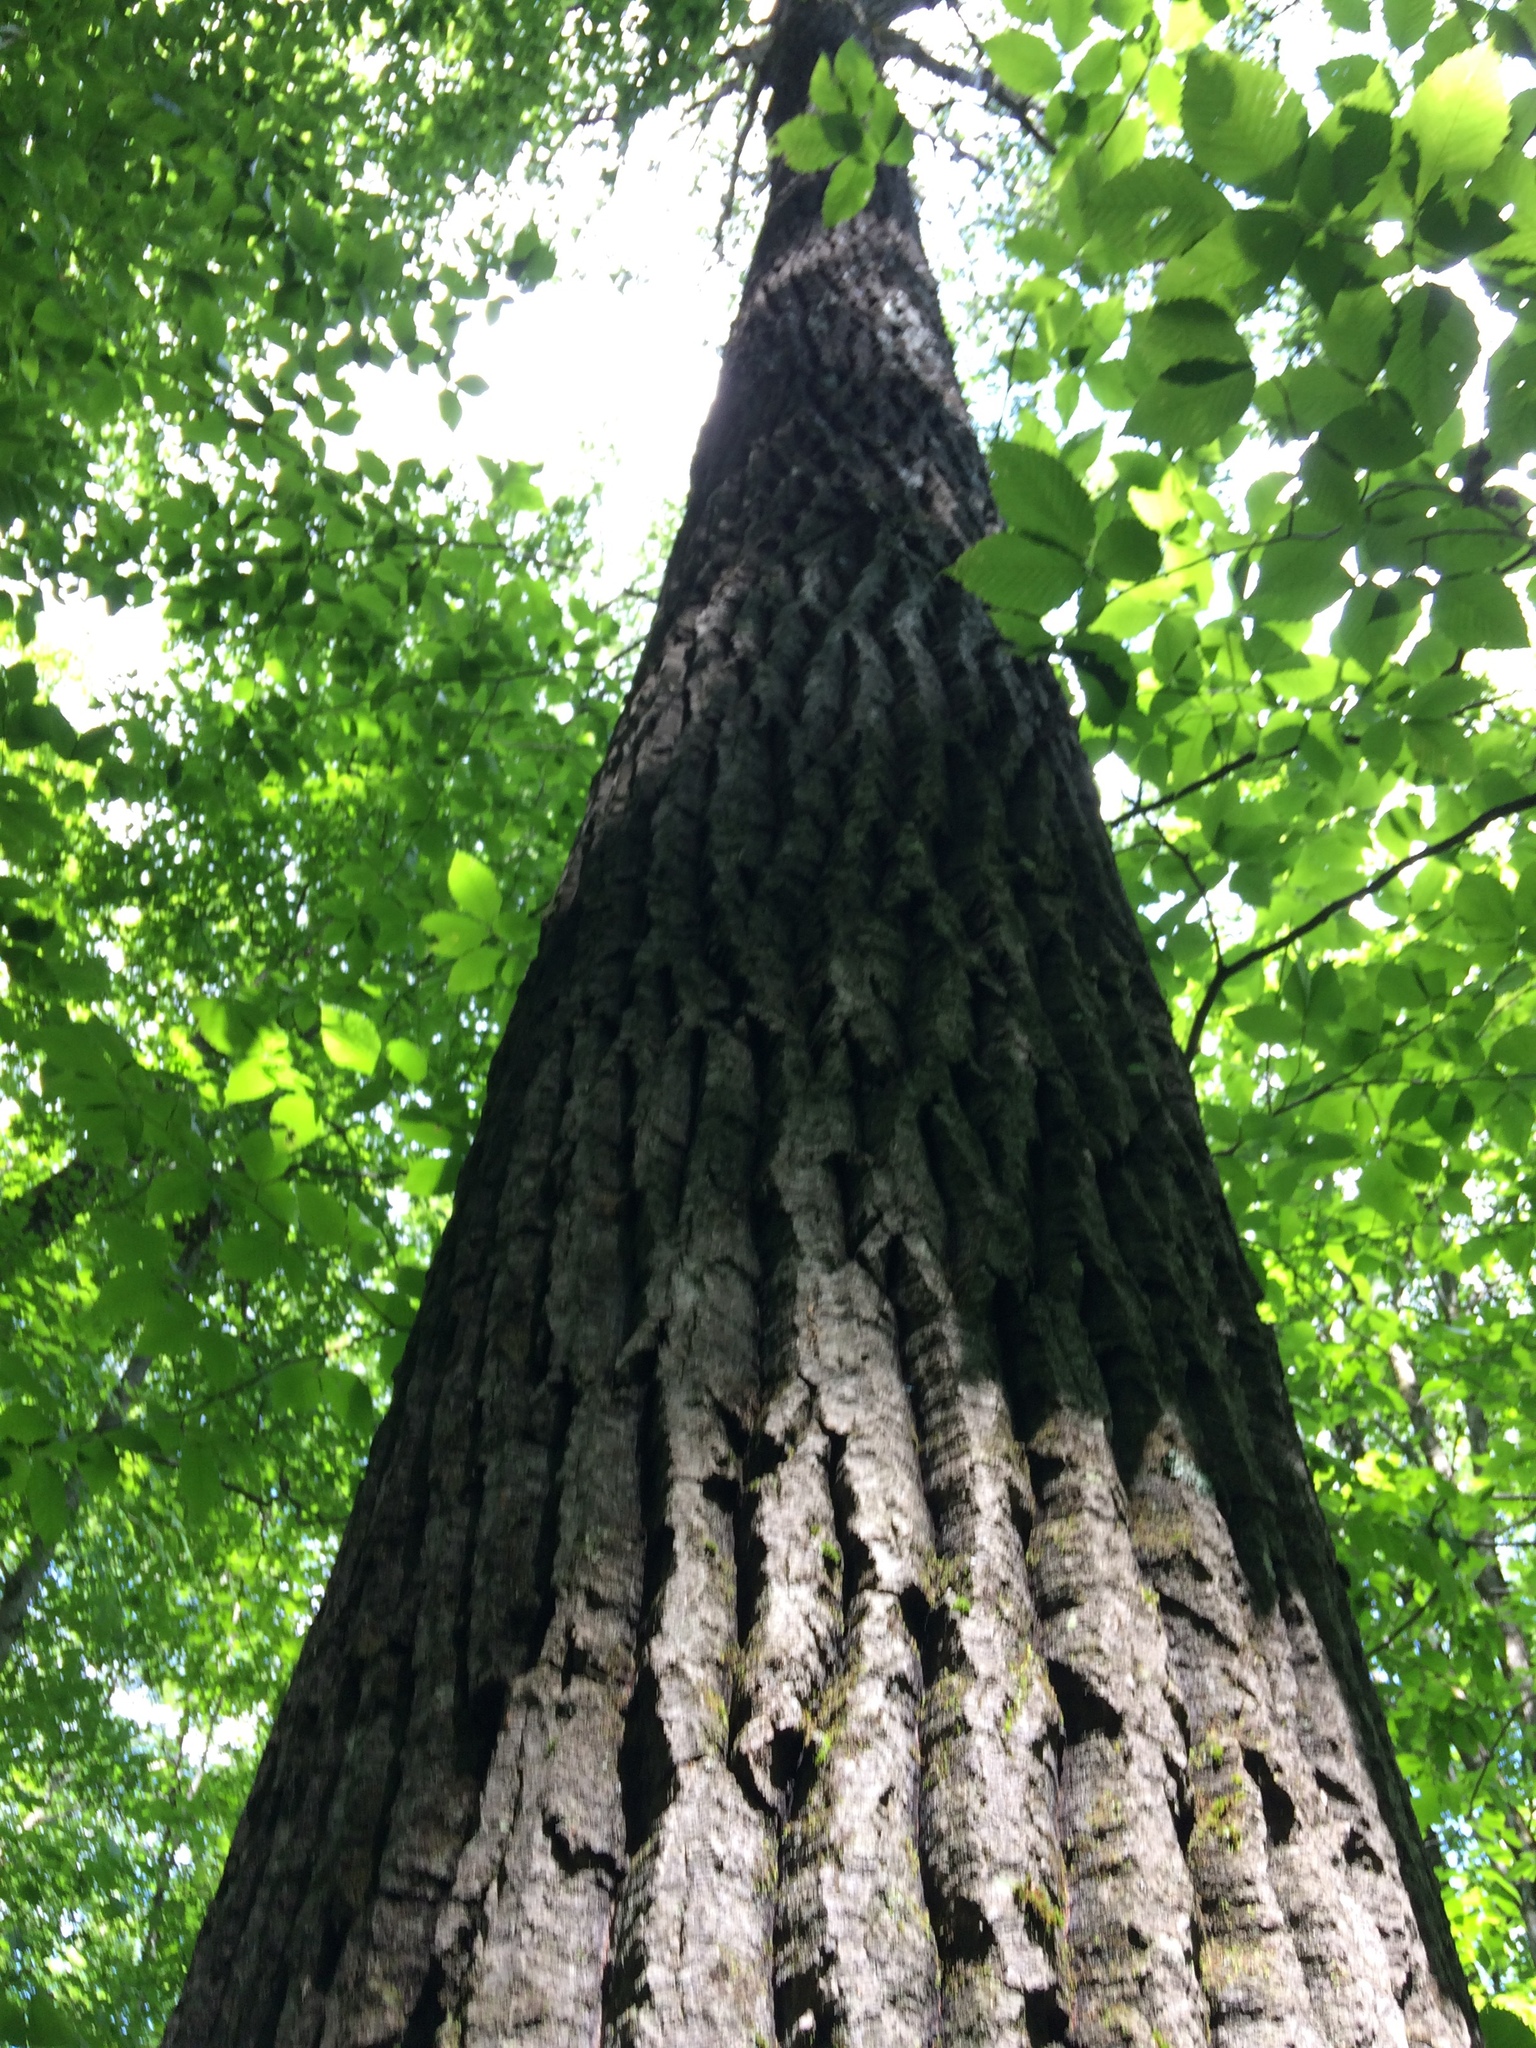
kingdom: Plantae
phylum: Tracheophyta
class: Magnoliopsida
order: Malpighiales
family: Salicaceae
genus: Populus
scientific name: Populus grandidentata
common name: Bigtooth aspen
